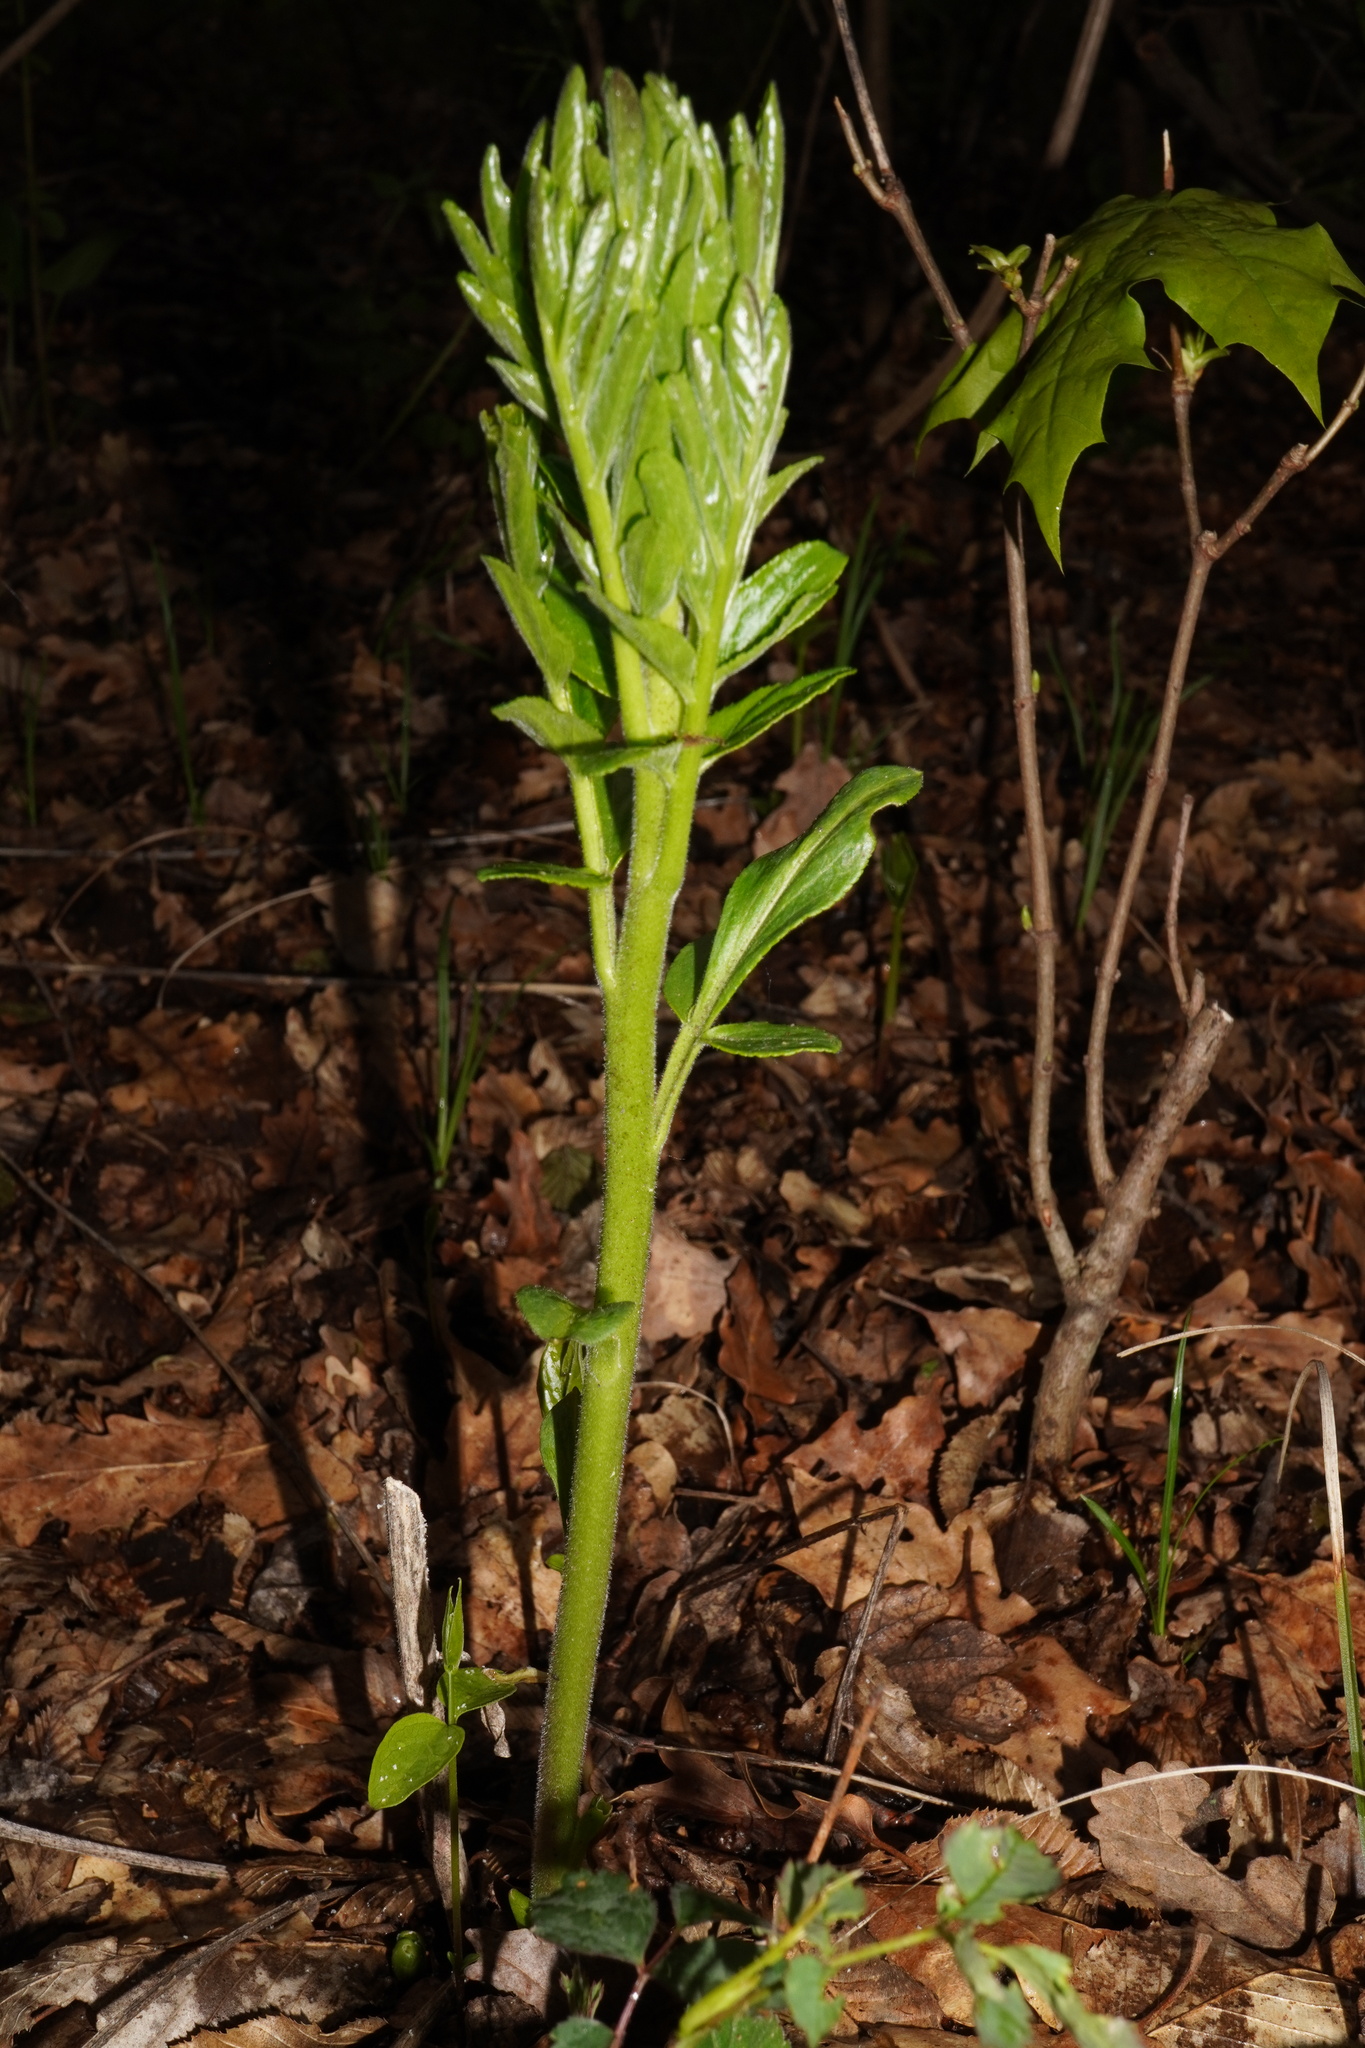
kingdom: Plantae
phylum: Tracheophyta
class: Magnoliopsida
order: Sapindales
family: Rutaceae
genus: Dictamnus
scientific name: Dictamnus albus
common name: Gasplant
